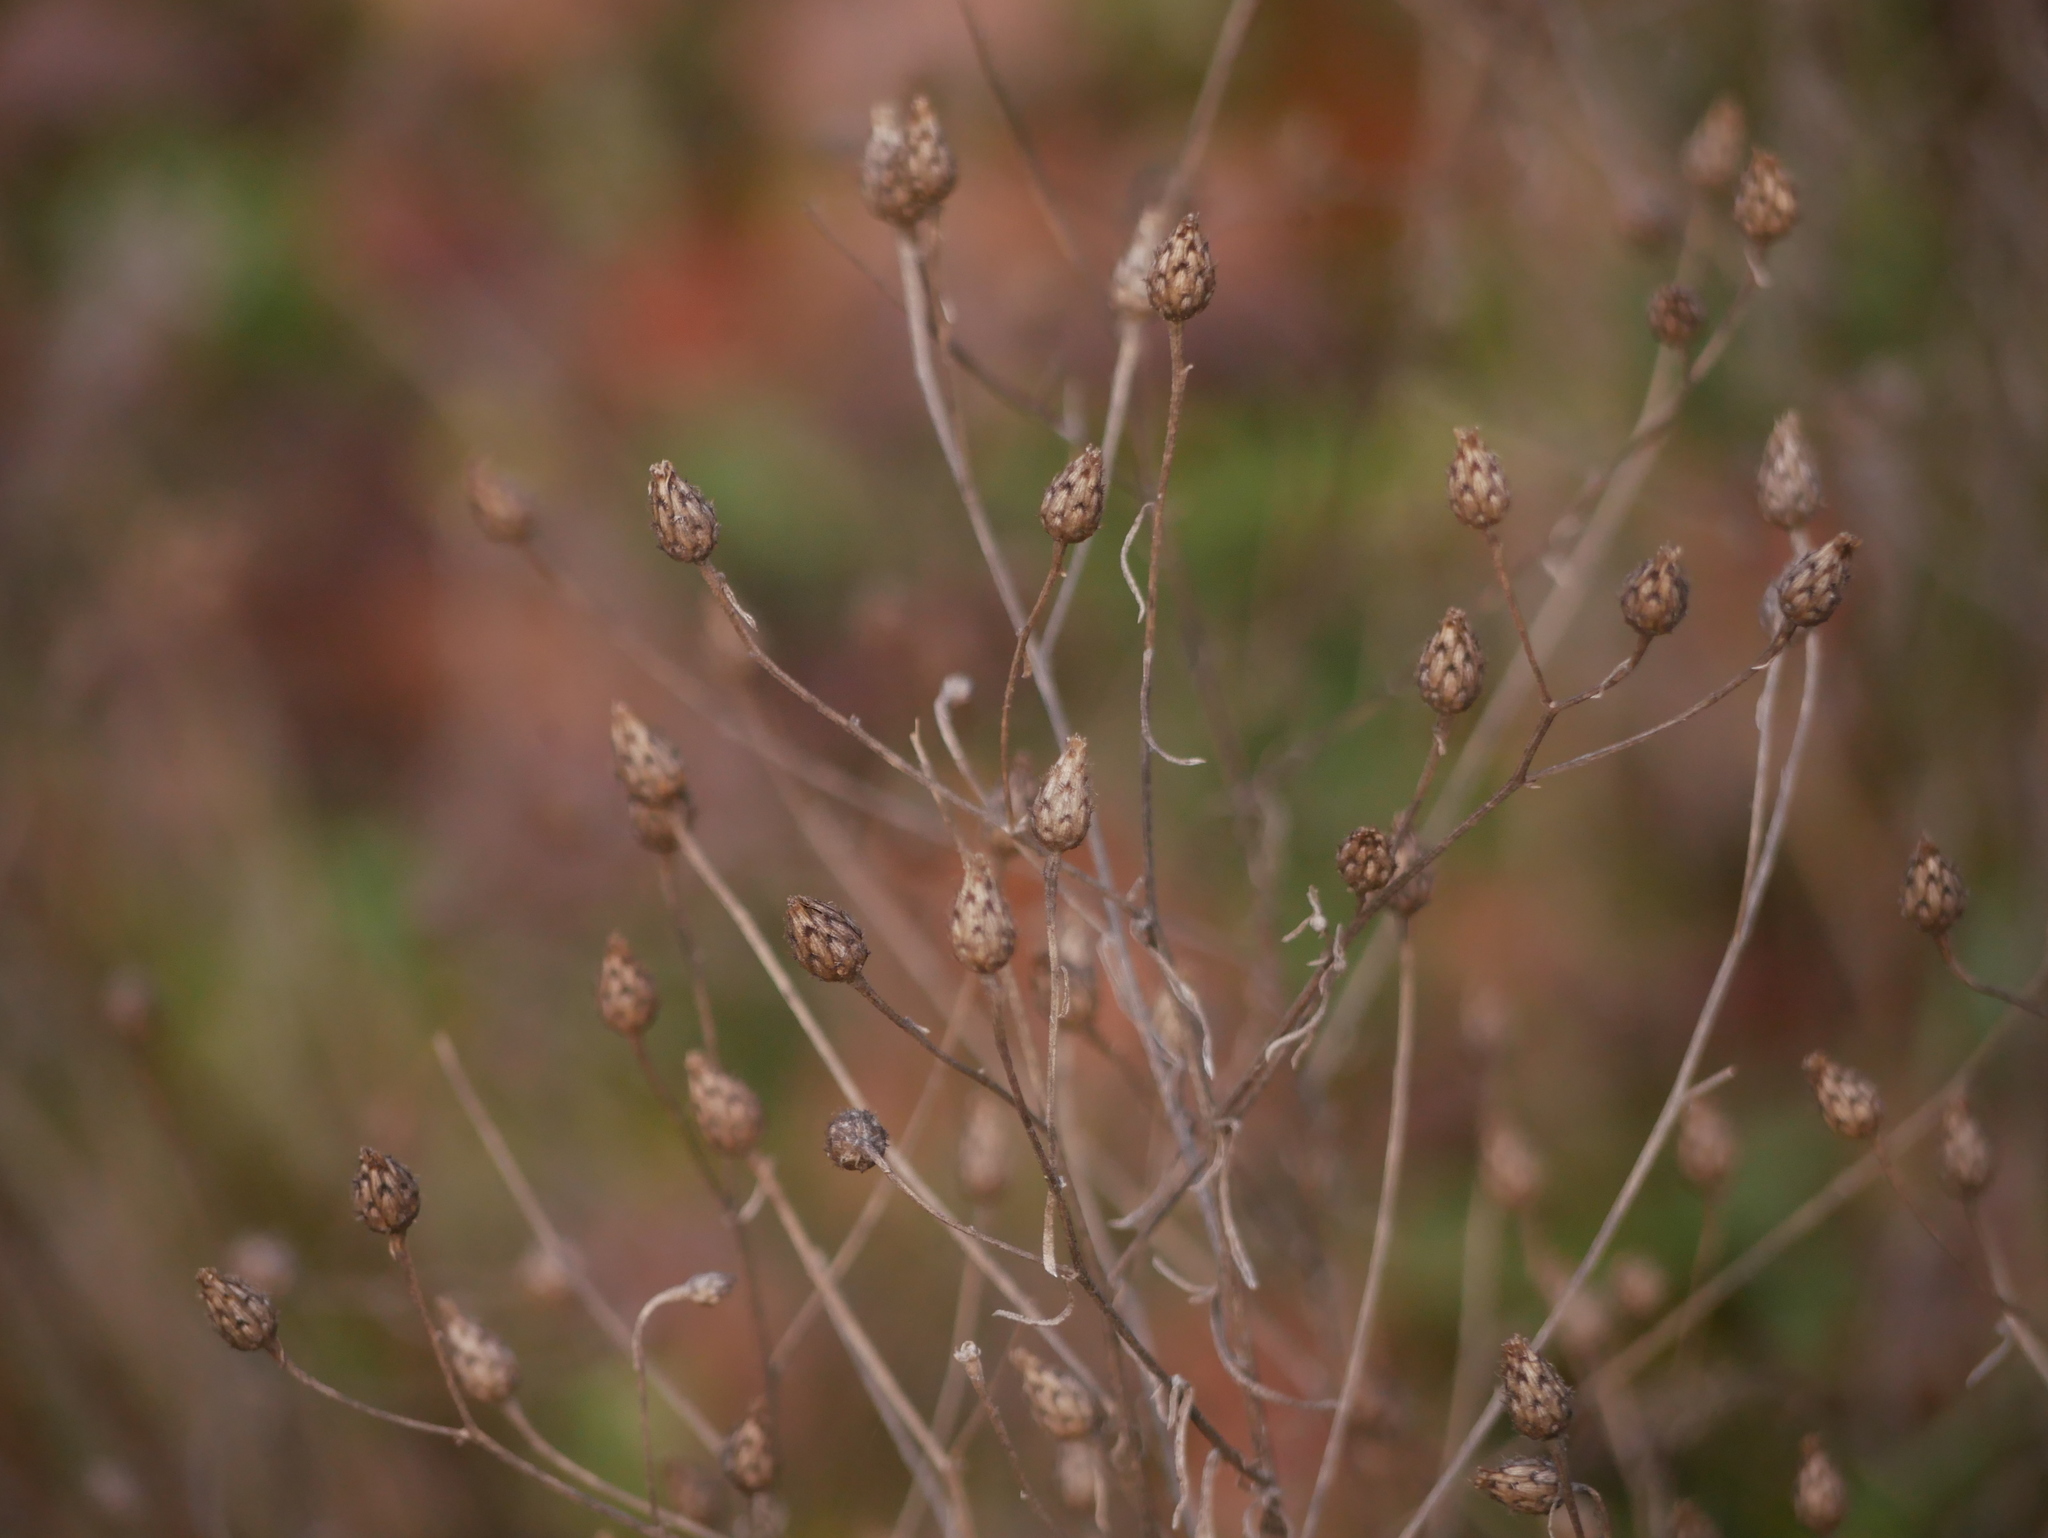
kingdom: Plantae
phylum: Tracheophyta
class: Magnoliopsida
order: Asterales
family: Asteraceae
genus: Centaurea
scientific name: Centaurea stoebe
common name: Spotted knapweed
